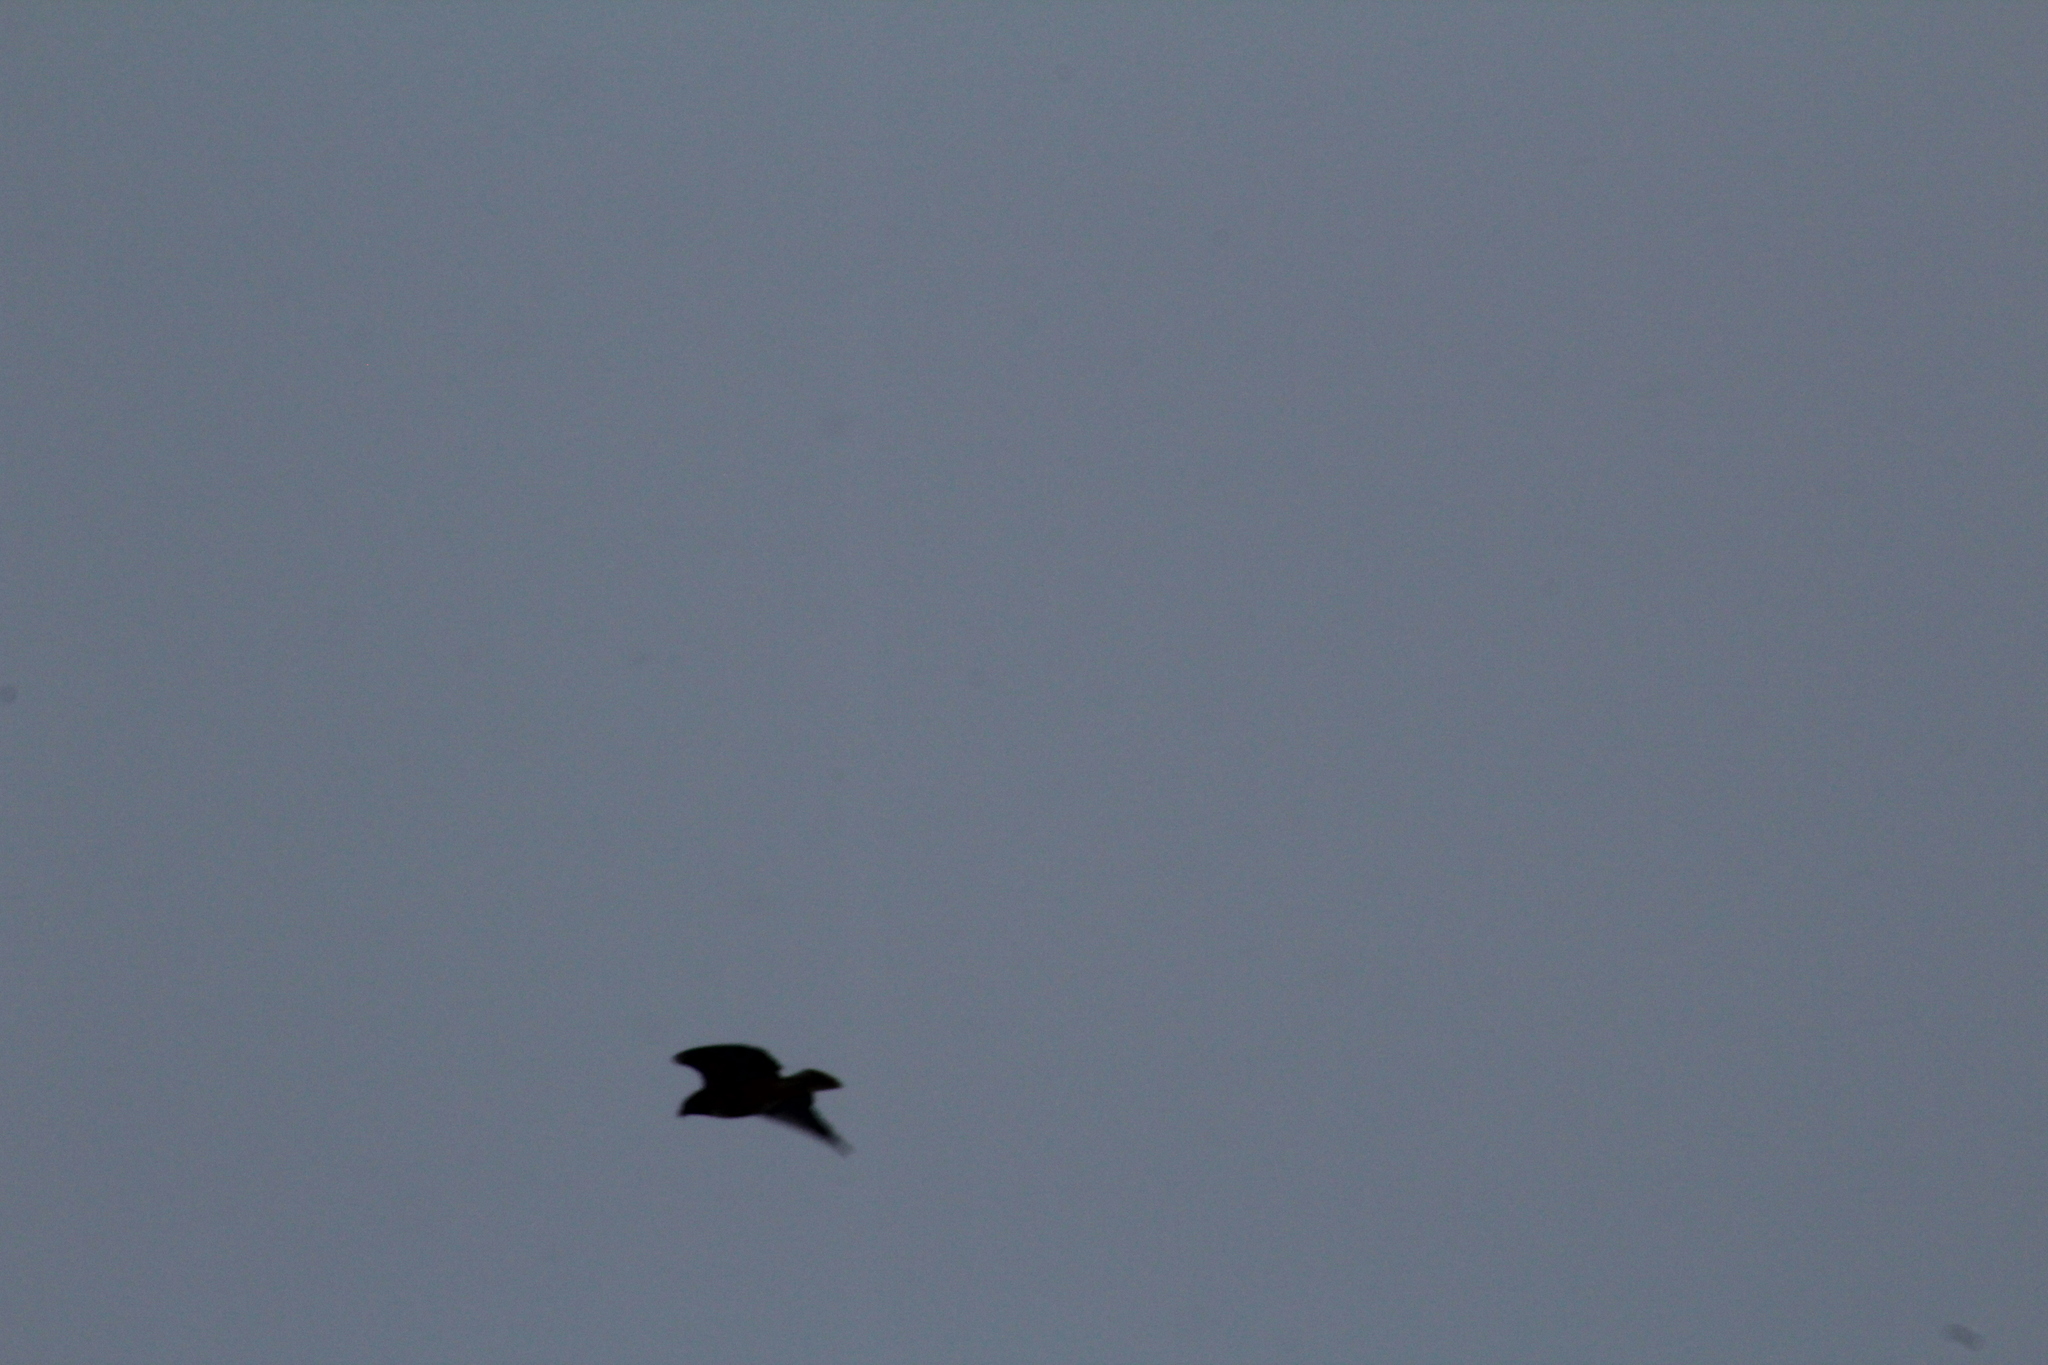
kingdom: Animalia
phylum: Chordata
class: Aves
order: Accipitriformes
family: Accipitridae
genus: Buteo
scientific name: Buteo jamaicensis
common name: Red-tailed hawk
